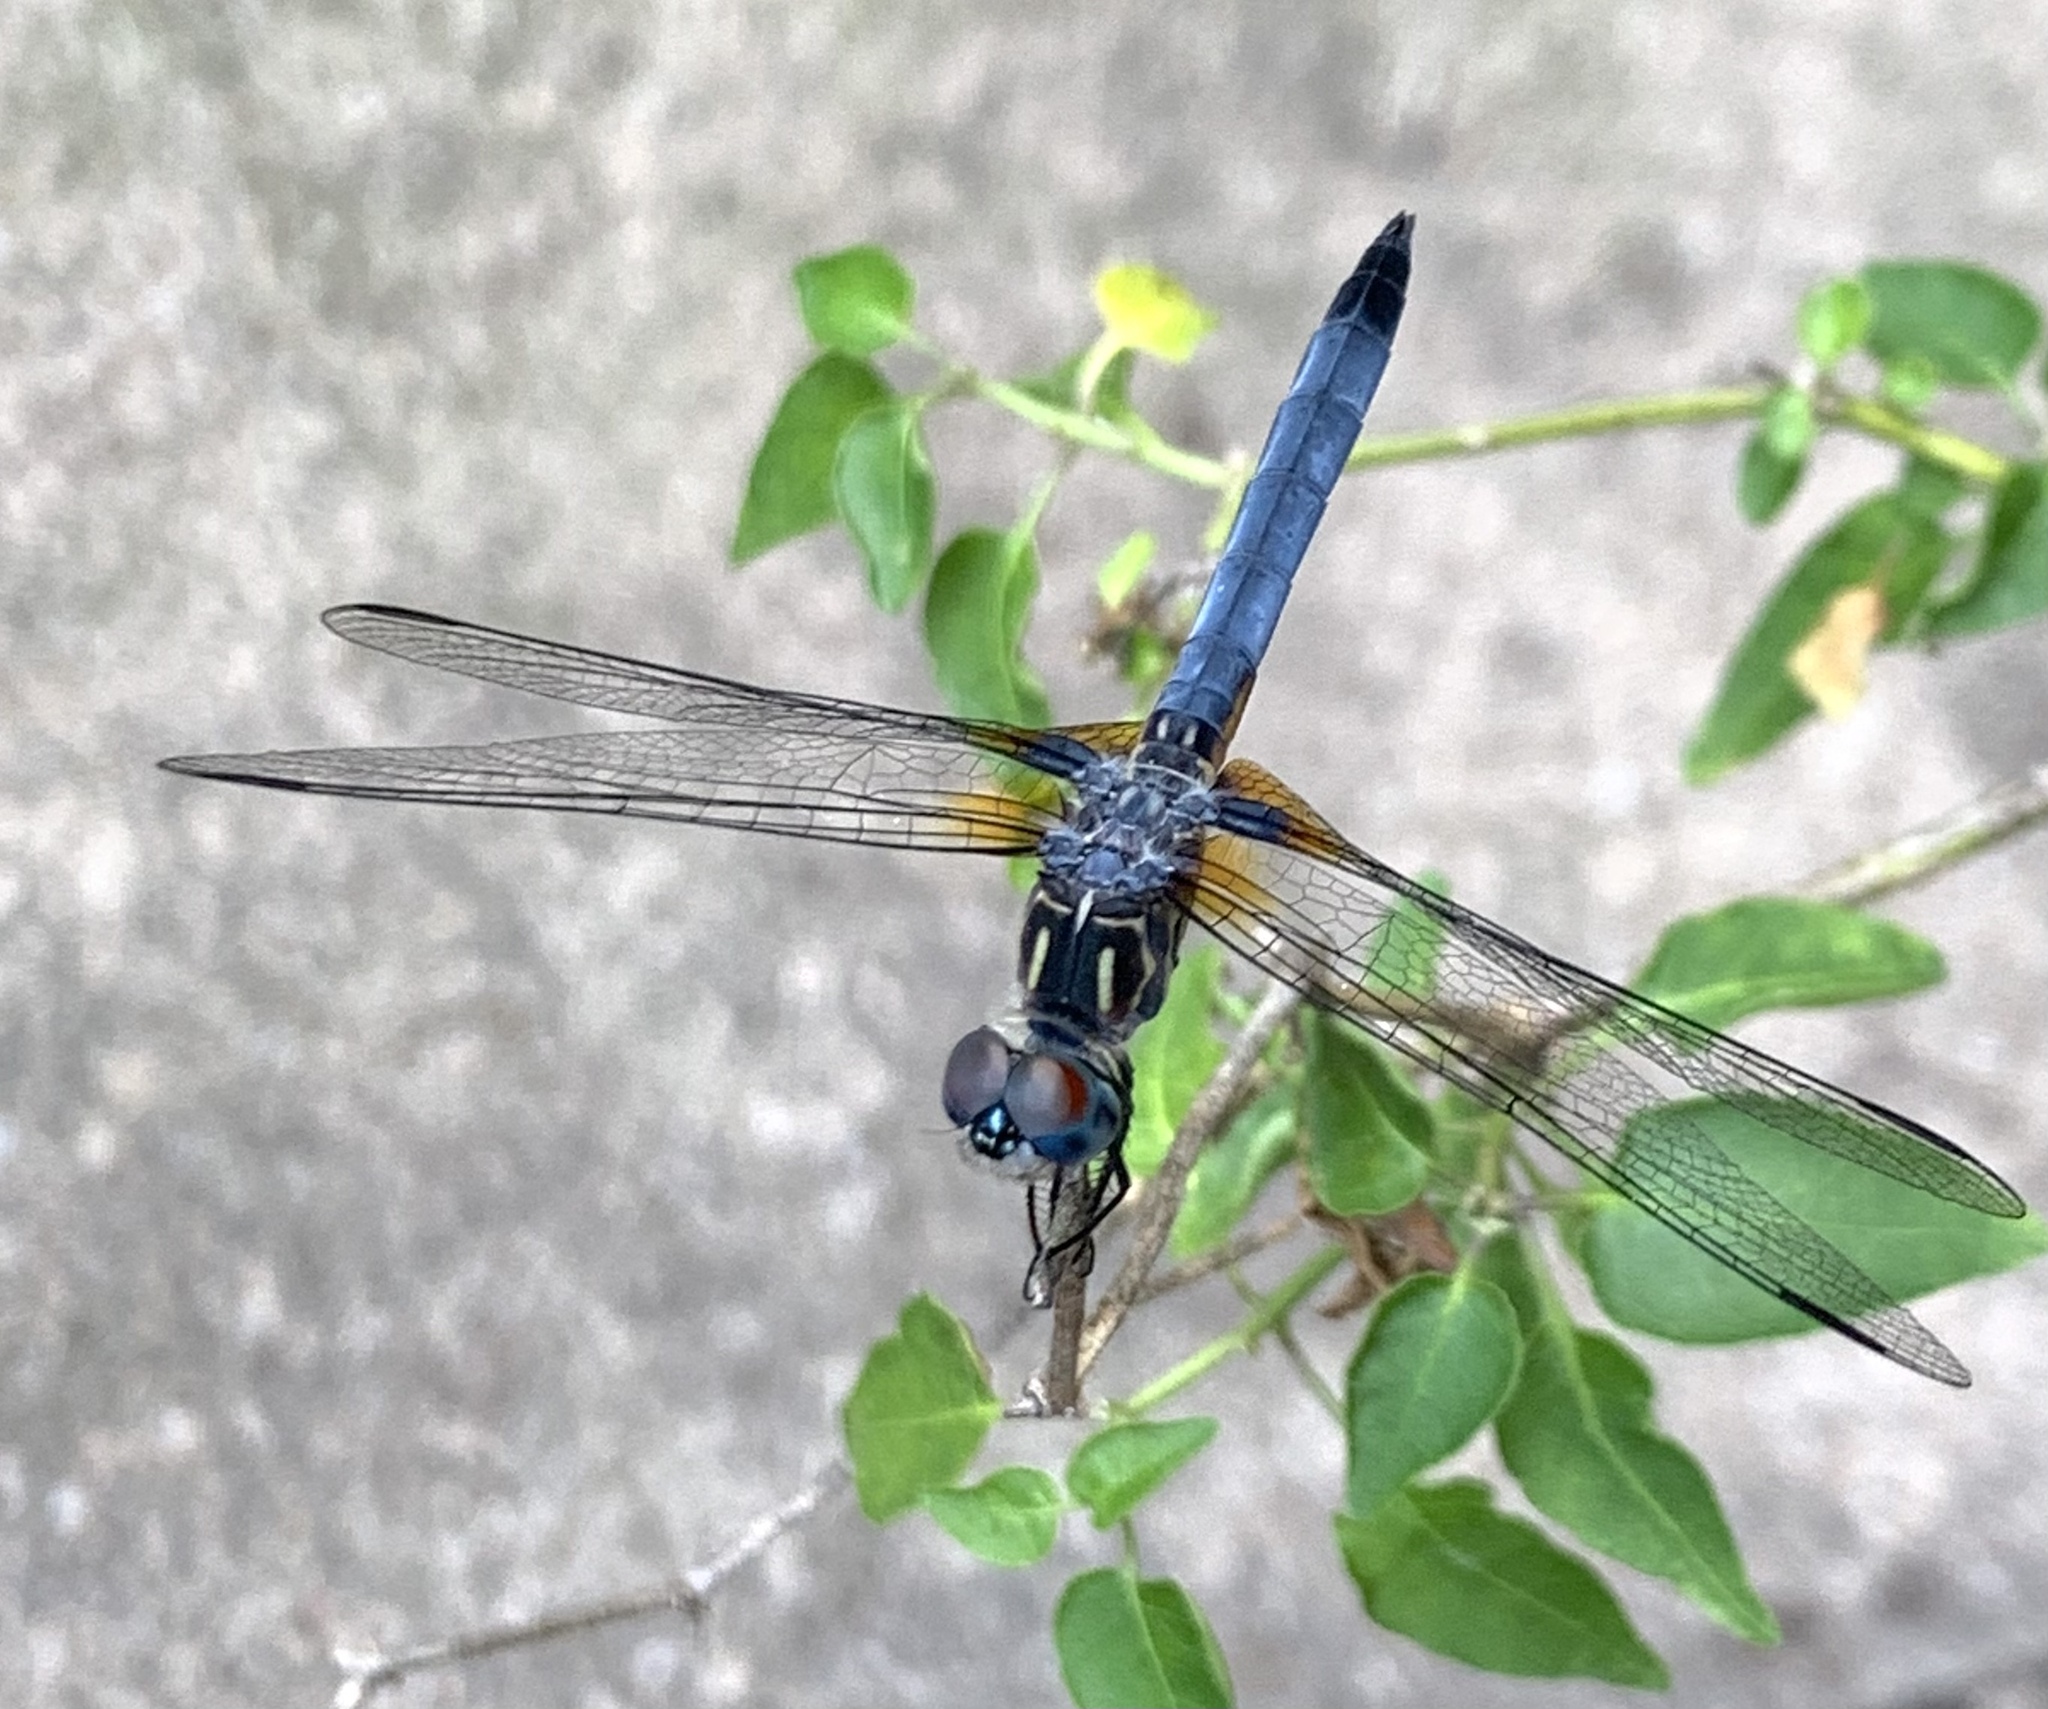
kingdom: Animalia
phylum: Arthropoda
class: Insecta
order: Odonata
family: Libellulidae
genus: Pachydiplax
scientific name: Pachydiplax longipennis
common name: Blue dasher
